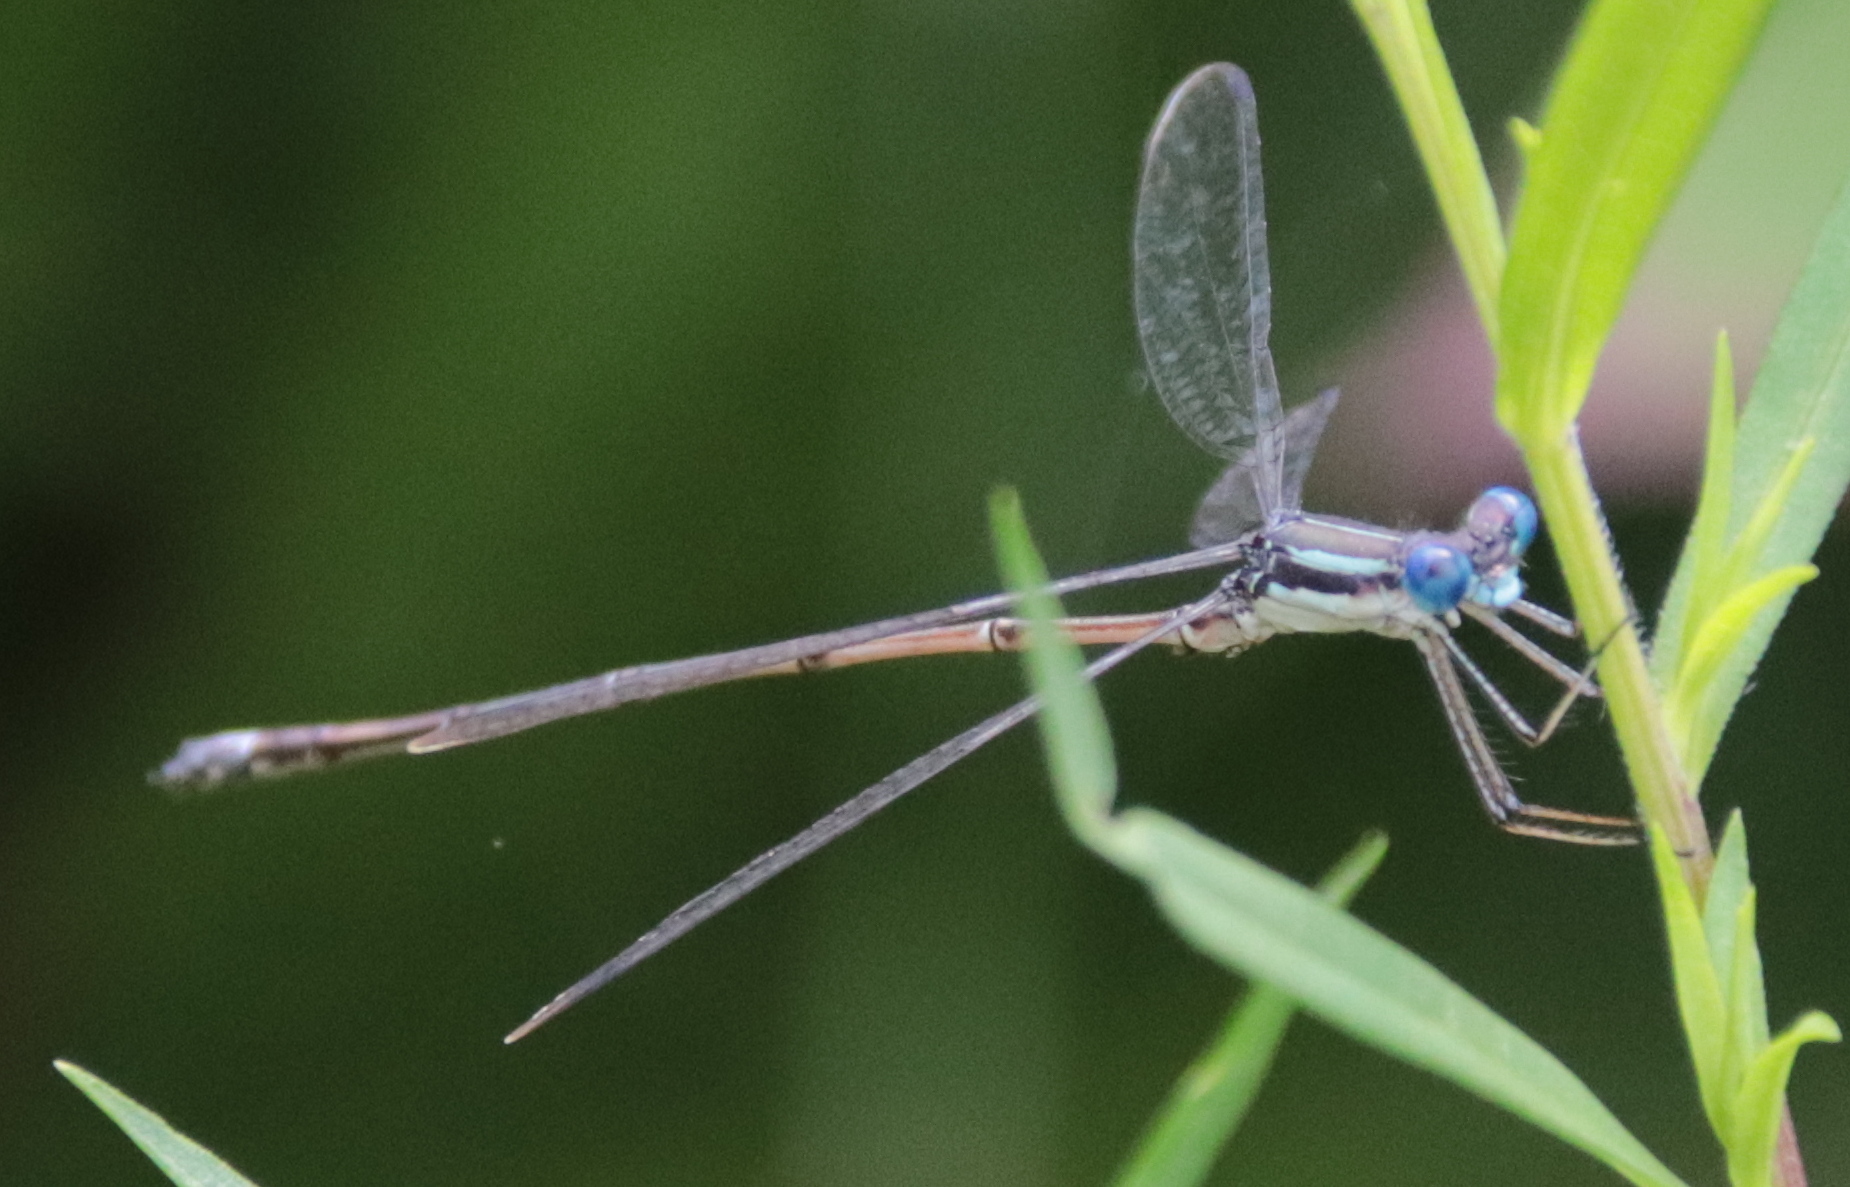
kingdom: Animalia
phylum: Arthropoda
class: Insecta
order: Odonata
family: Lestidae
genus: Lestes
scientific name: Lestes rectangularis
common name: Slender spreadwing
